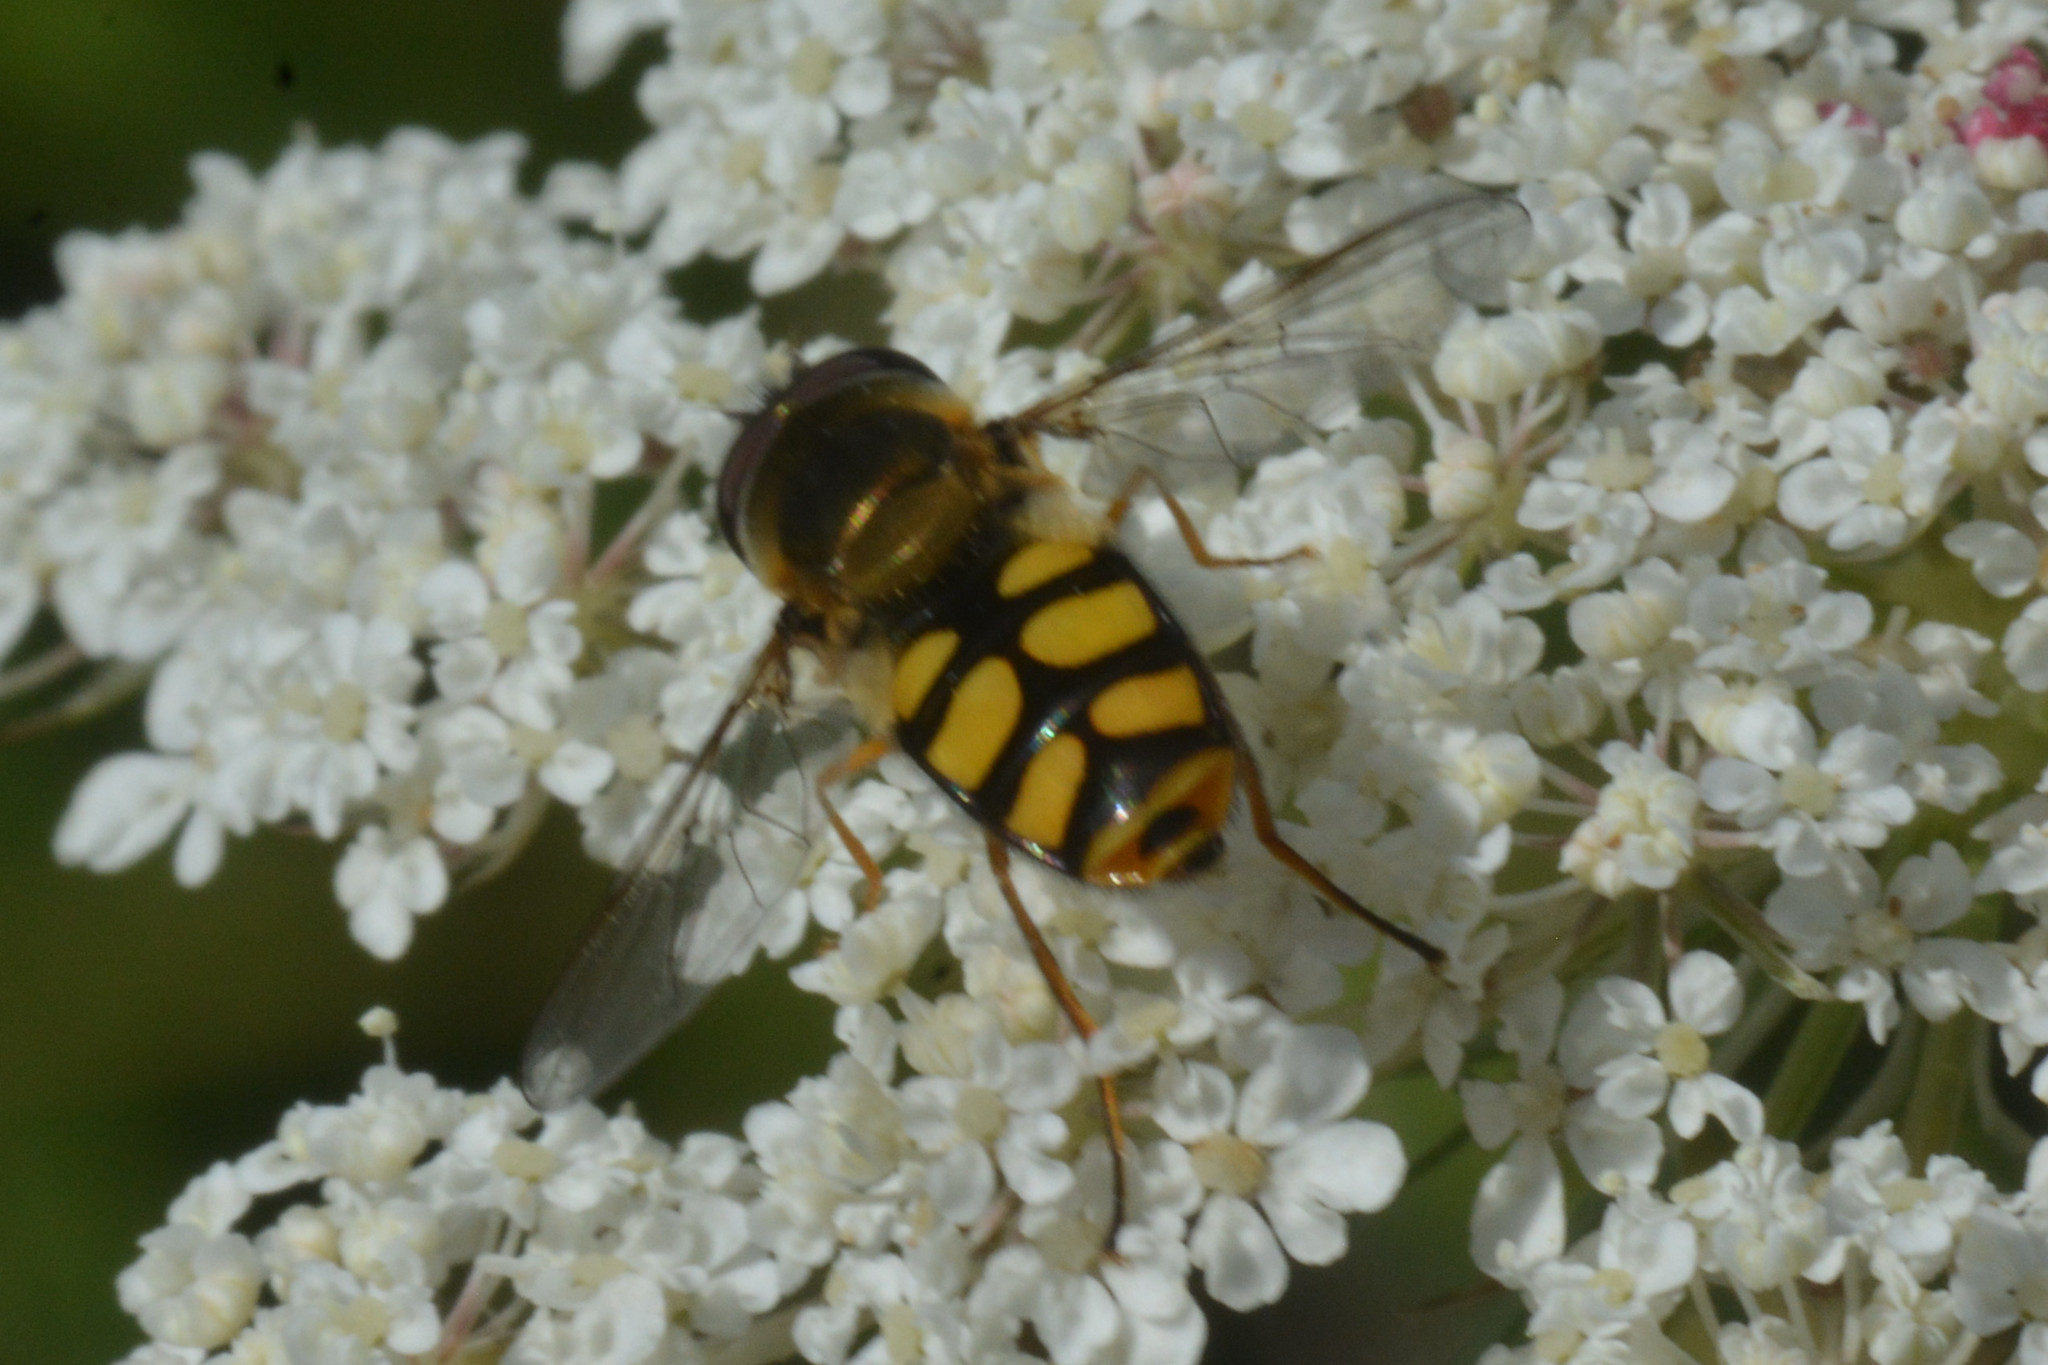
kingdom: Animalia
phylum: Arthropoda
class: Insecta
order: Diptera
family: Syrphidae
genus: Eupeodes
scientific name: Eupeodes
